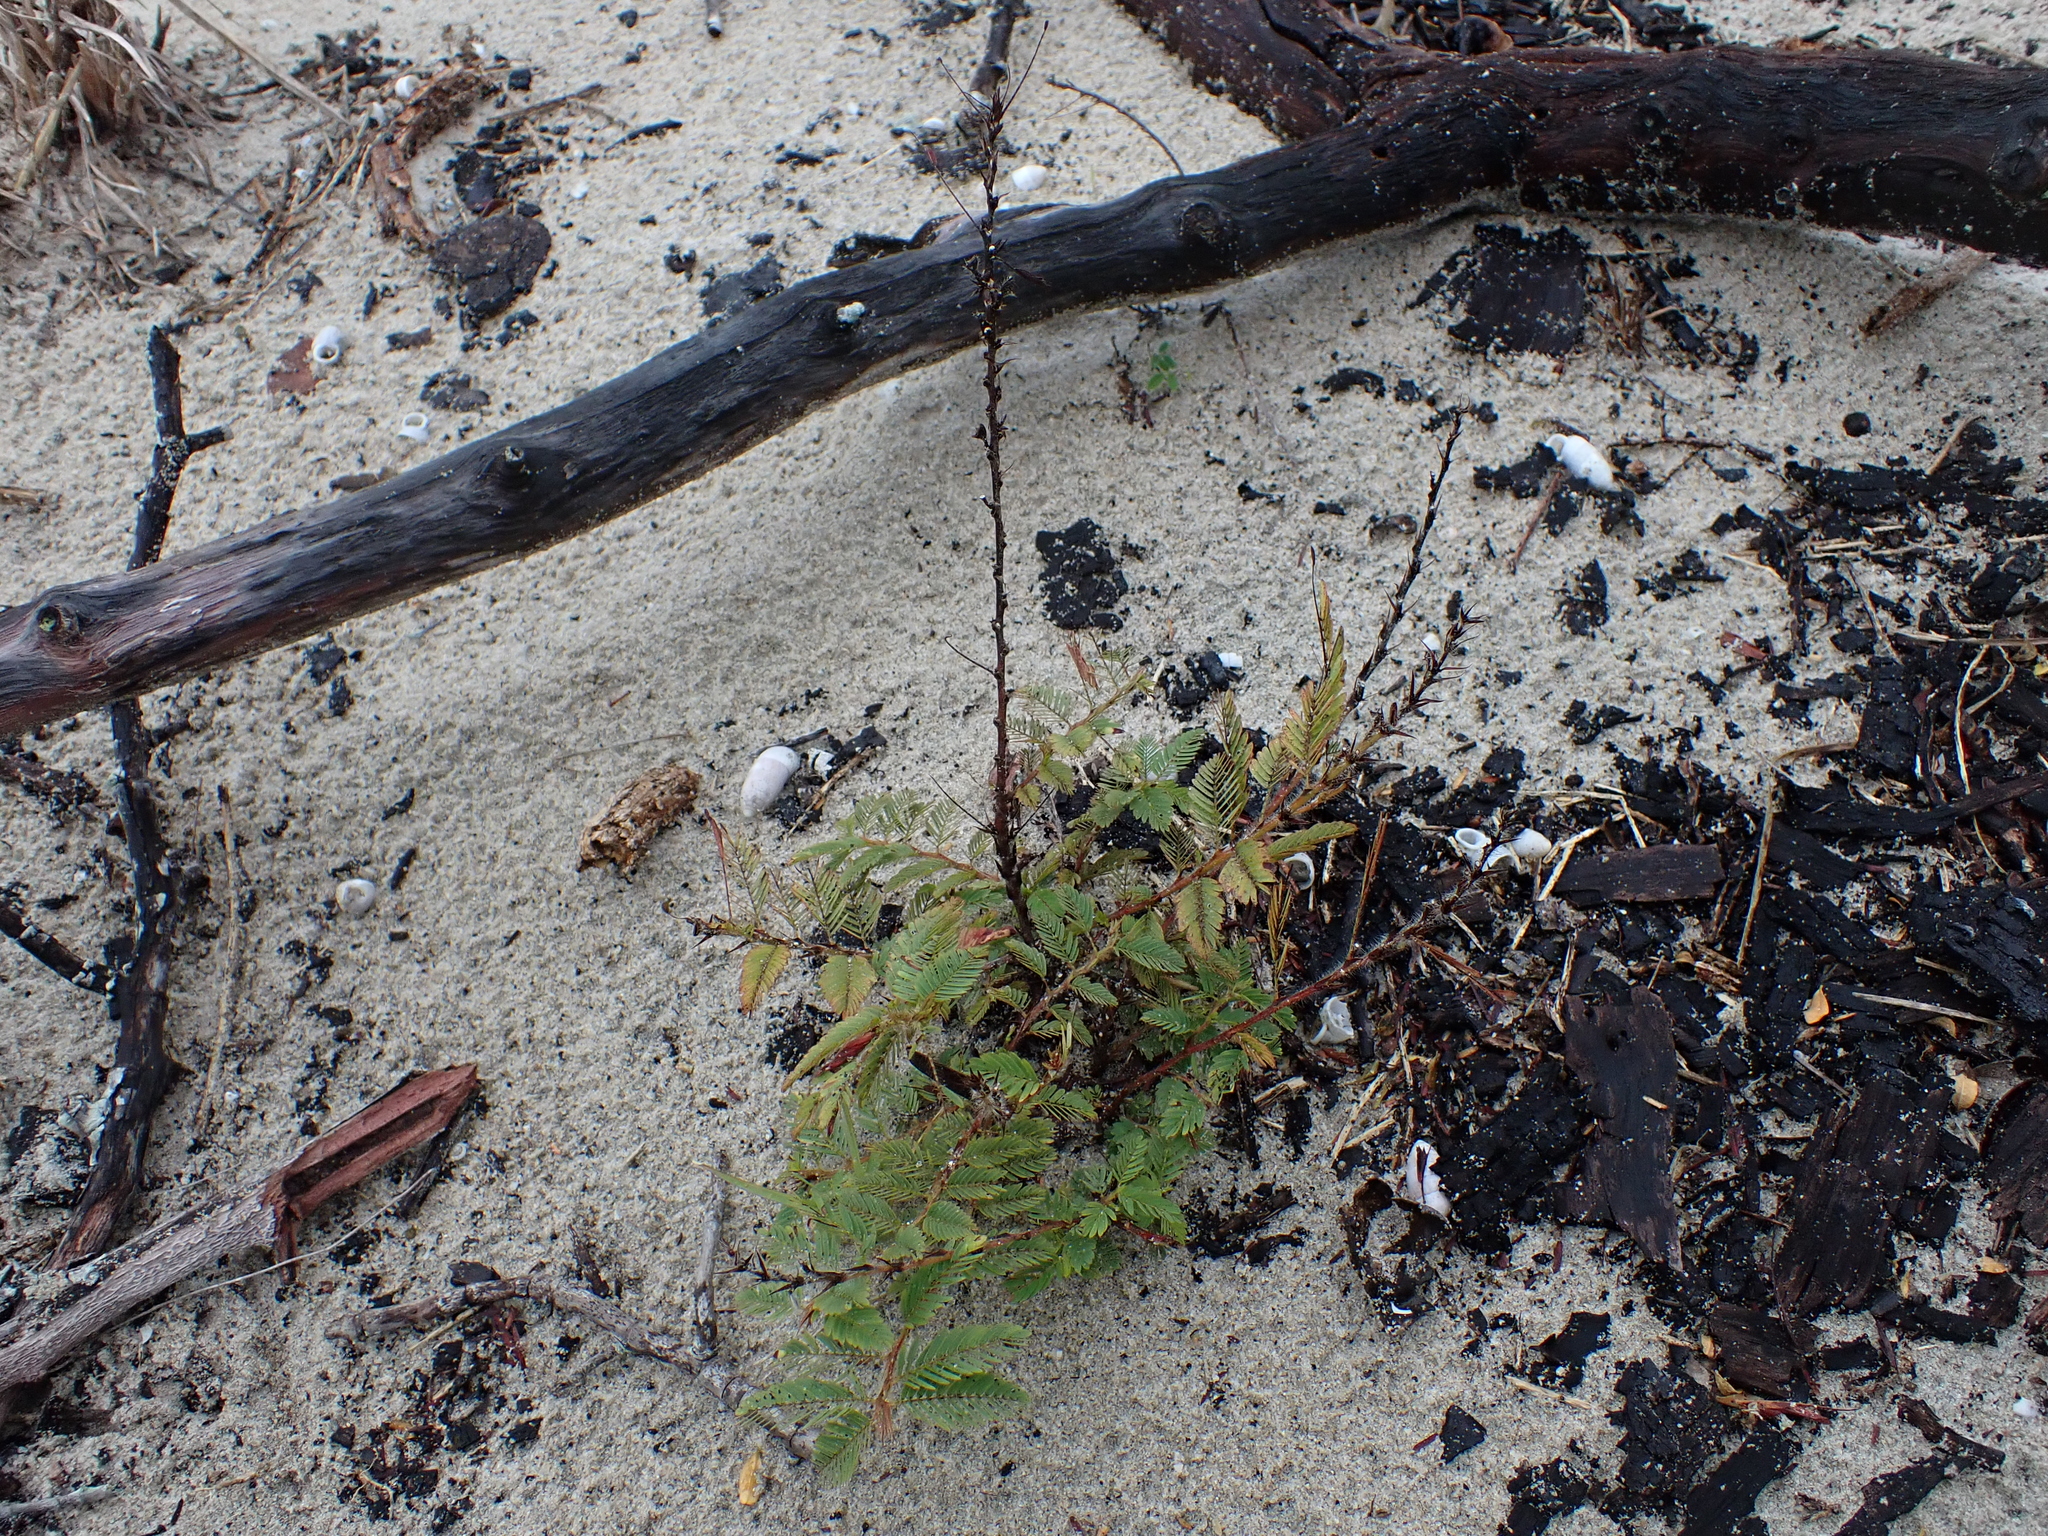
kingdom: Plantae
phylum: Tracheophyta
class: Magnoliopsida
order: Fabales
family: Fabaceae
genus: Chamaecrista
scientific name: Chamaecrista nictitans
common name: Sensitive cassia
